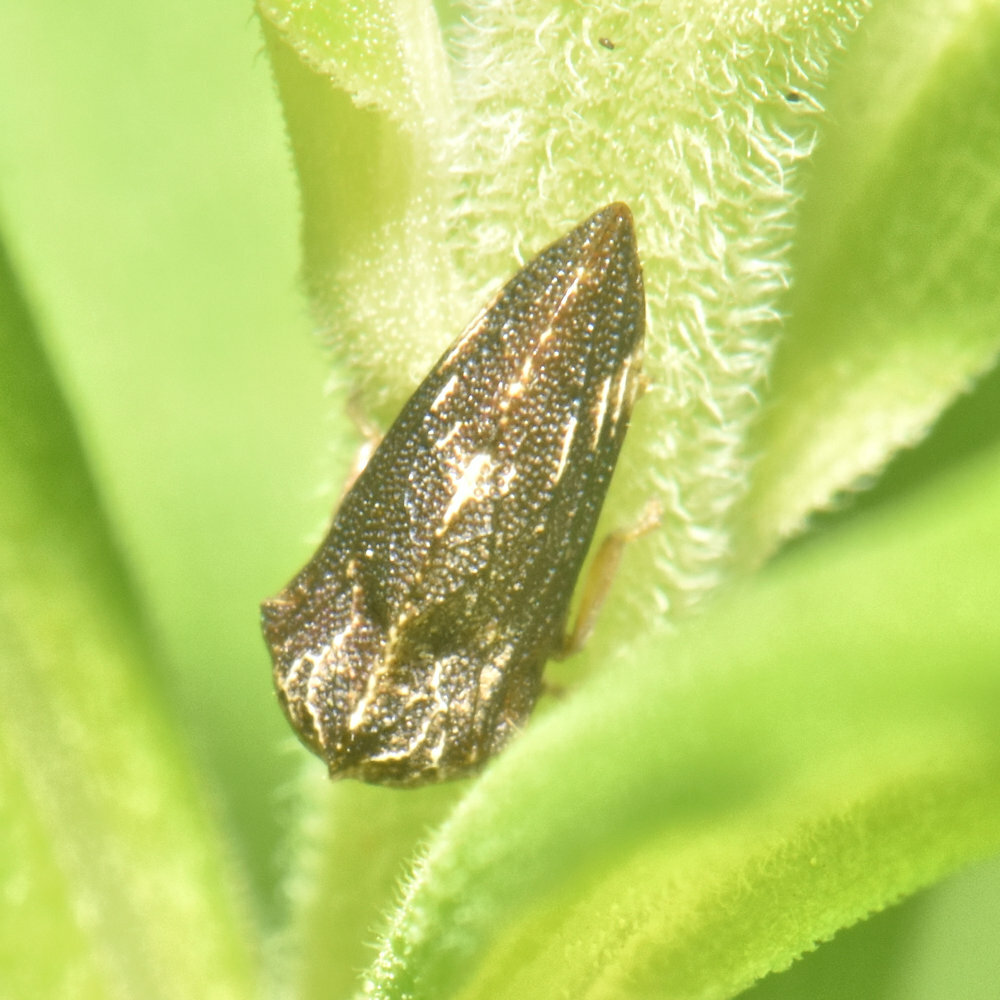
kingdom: Animalia
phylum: Arthropoda
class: Insecta
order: Hemiptera
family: Membracidae
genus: Publilia
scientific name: Publilia concava
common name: Aster treehopper
